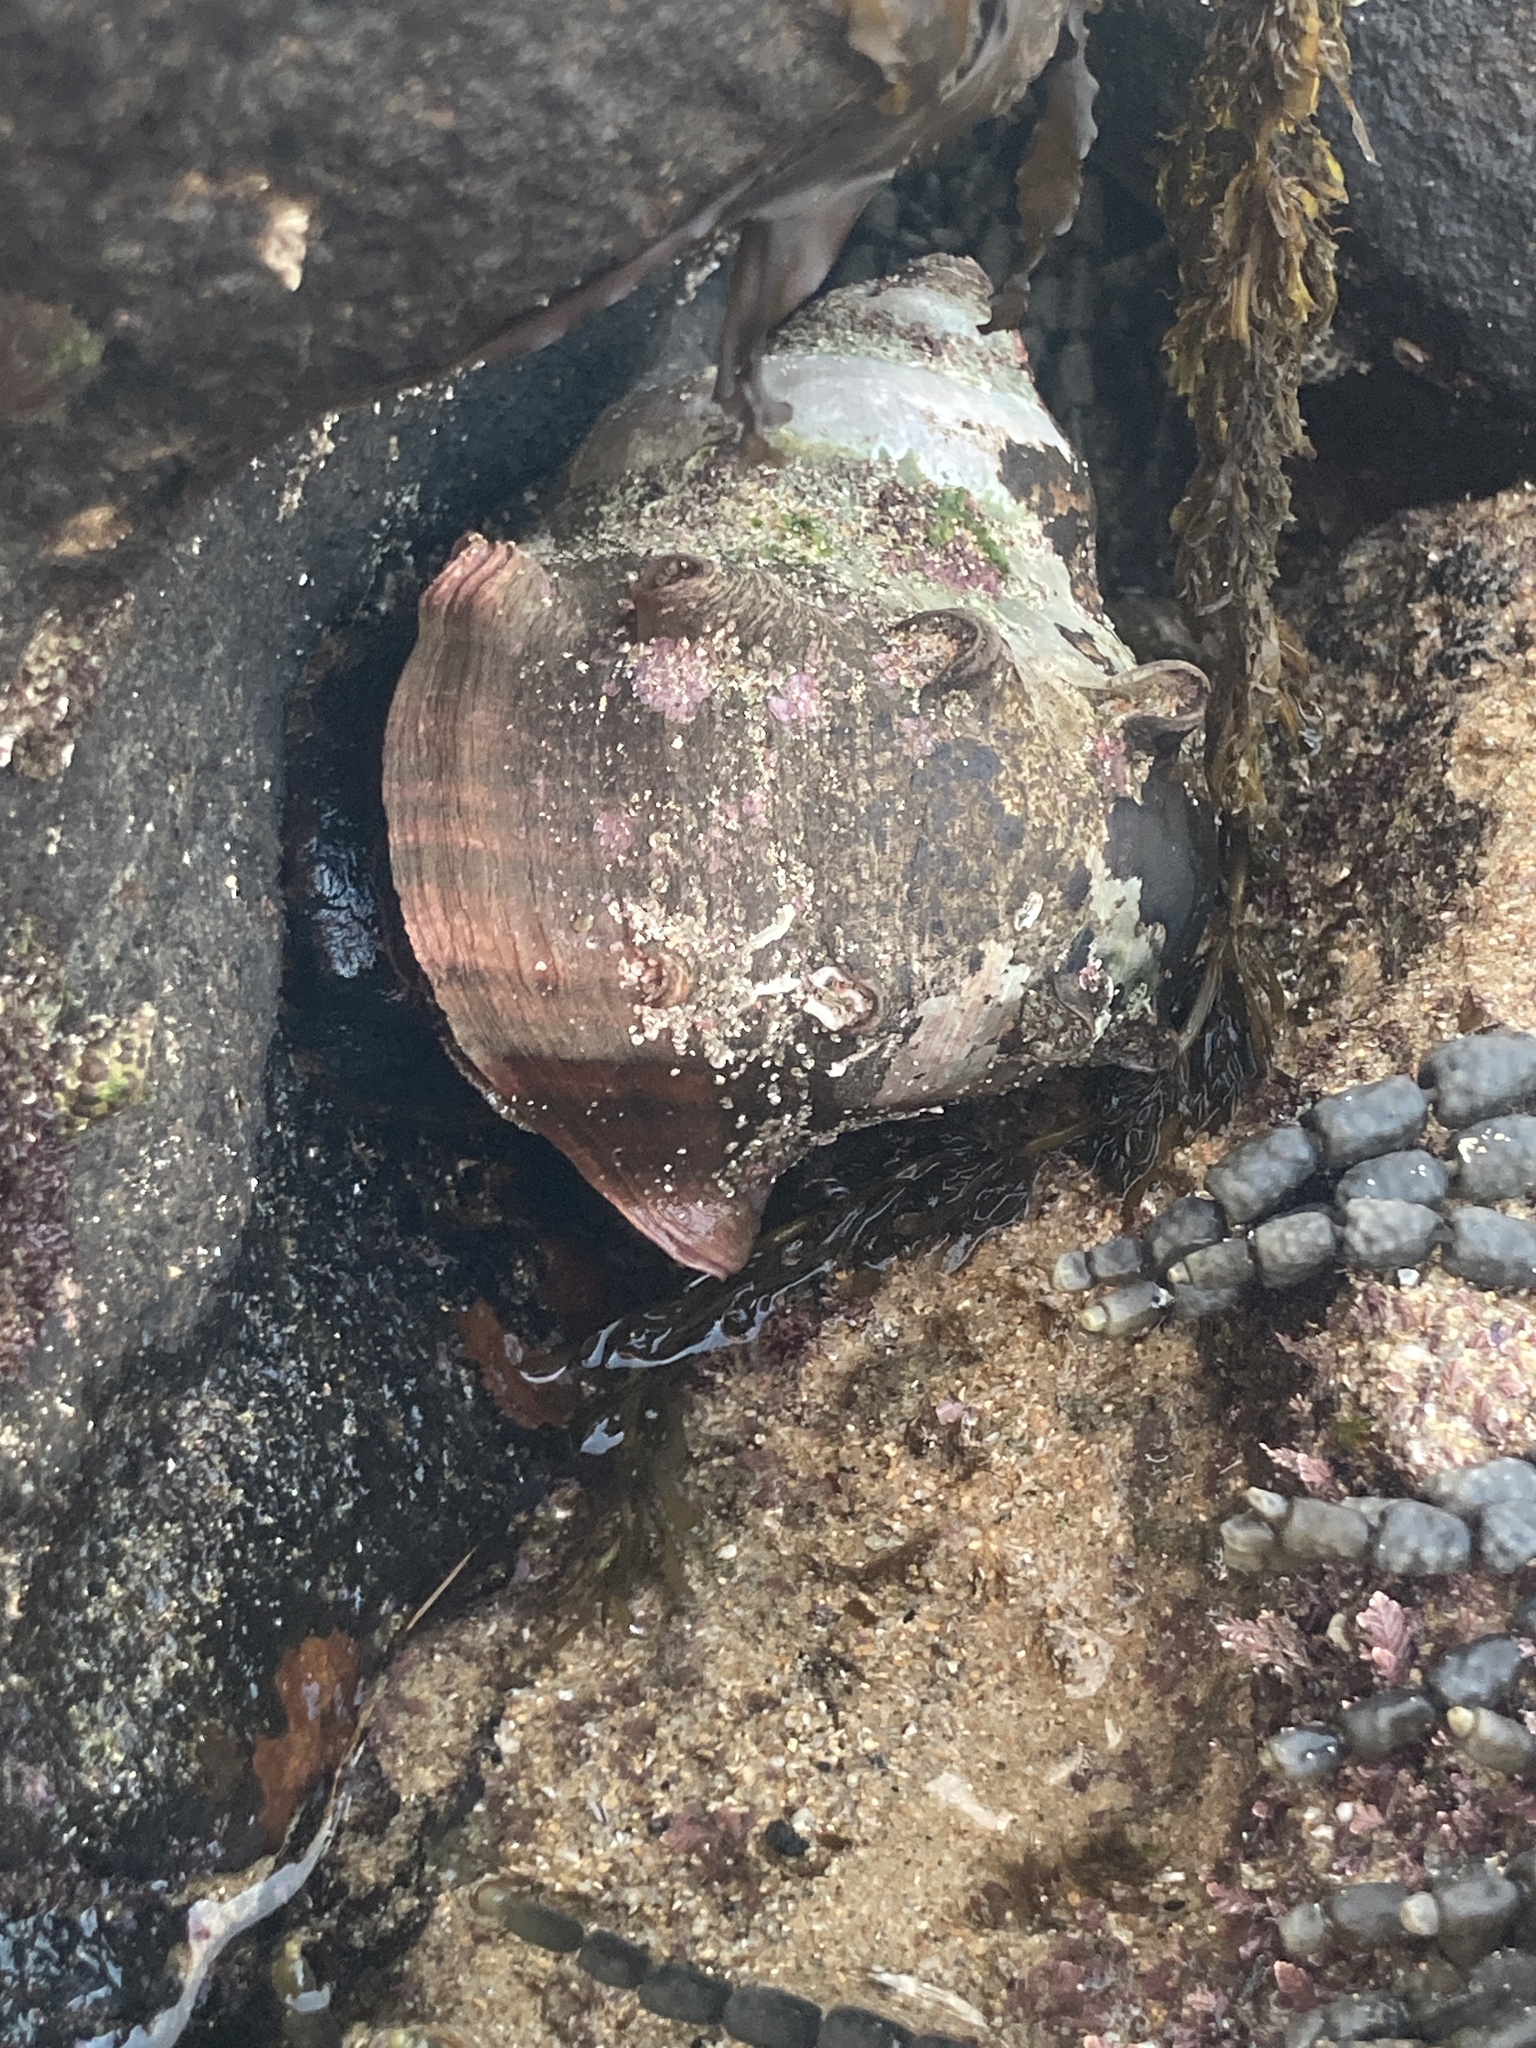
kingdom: Animalia
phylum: Mollusca
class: Gastropoda
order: Trochida
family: Turbinidae
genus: Turbo
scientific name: Turbo militaris
